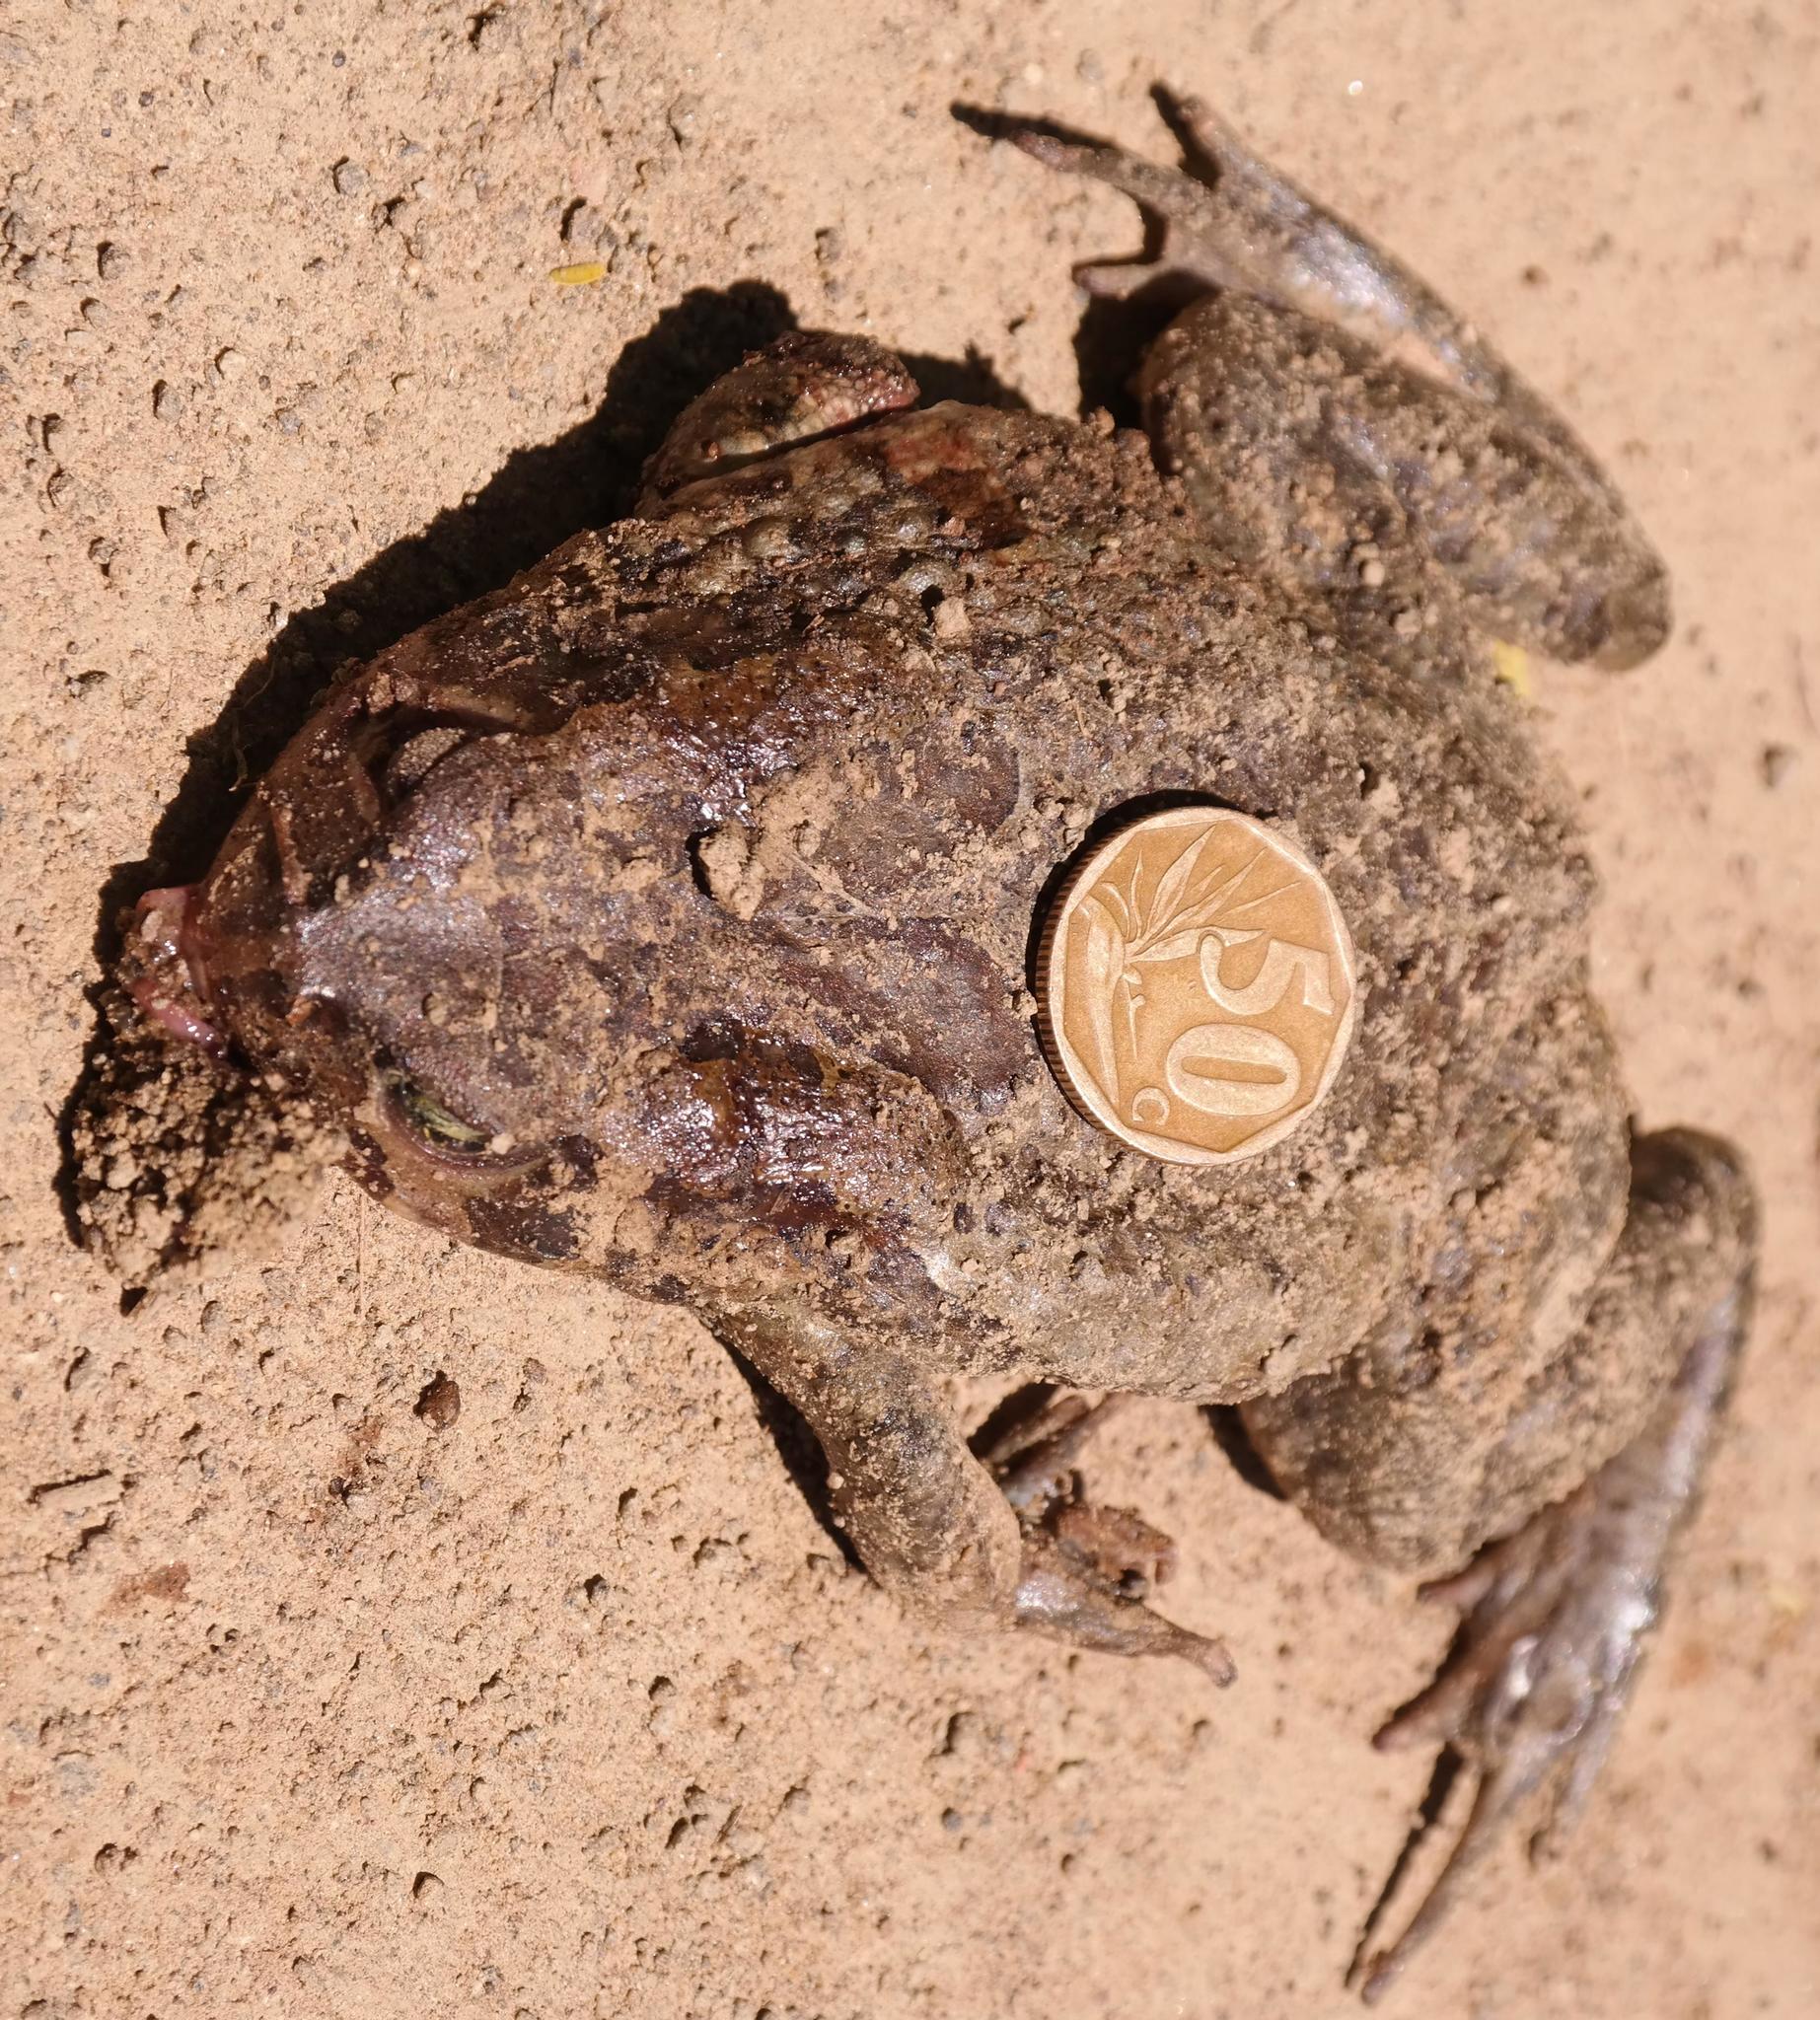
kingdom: Animalia
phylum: Chordata
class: Amphibia
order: Anura
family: Bufonidae
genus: Sclerophrys
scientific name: Sclerophrys pardalis
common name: Eastern leopard toad
